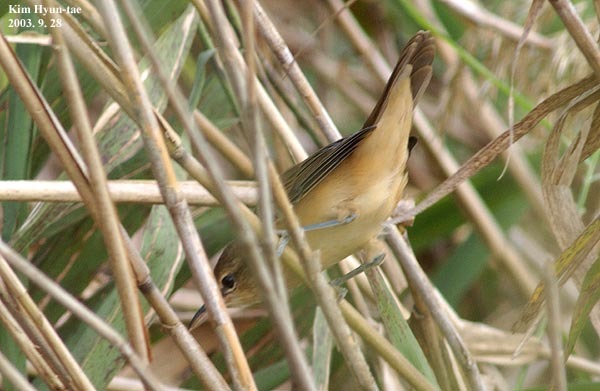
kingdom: Animalia
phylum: Chordata
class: Aves
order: Passeriformes
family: Acrocephalidae
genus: Acrocephalus
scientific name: Acrocephalus orientalis
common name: Oriental reed warbler
